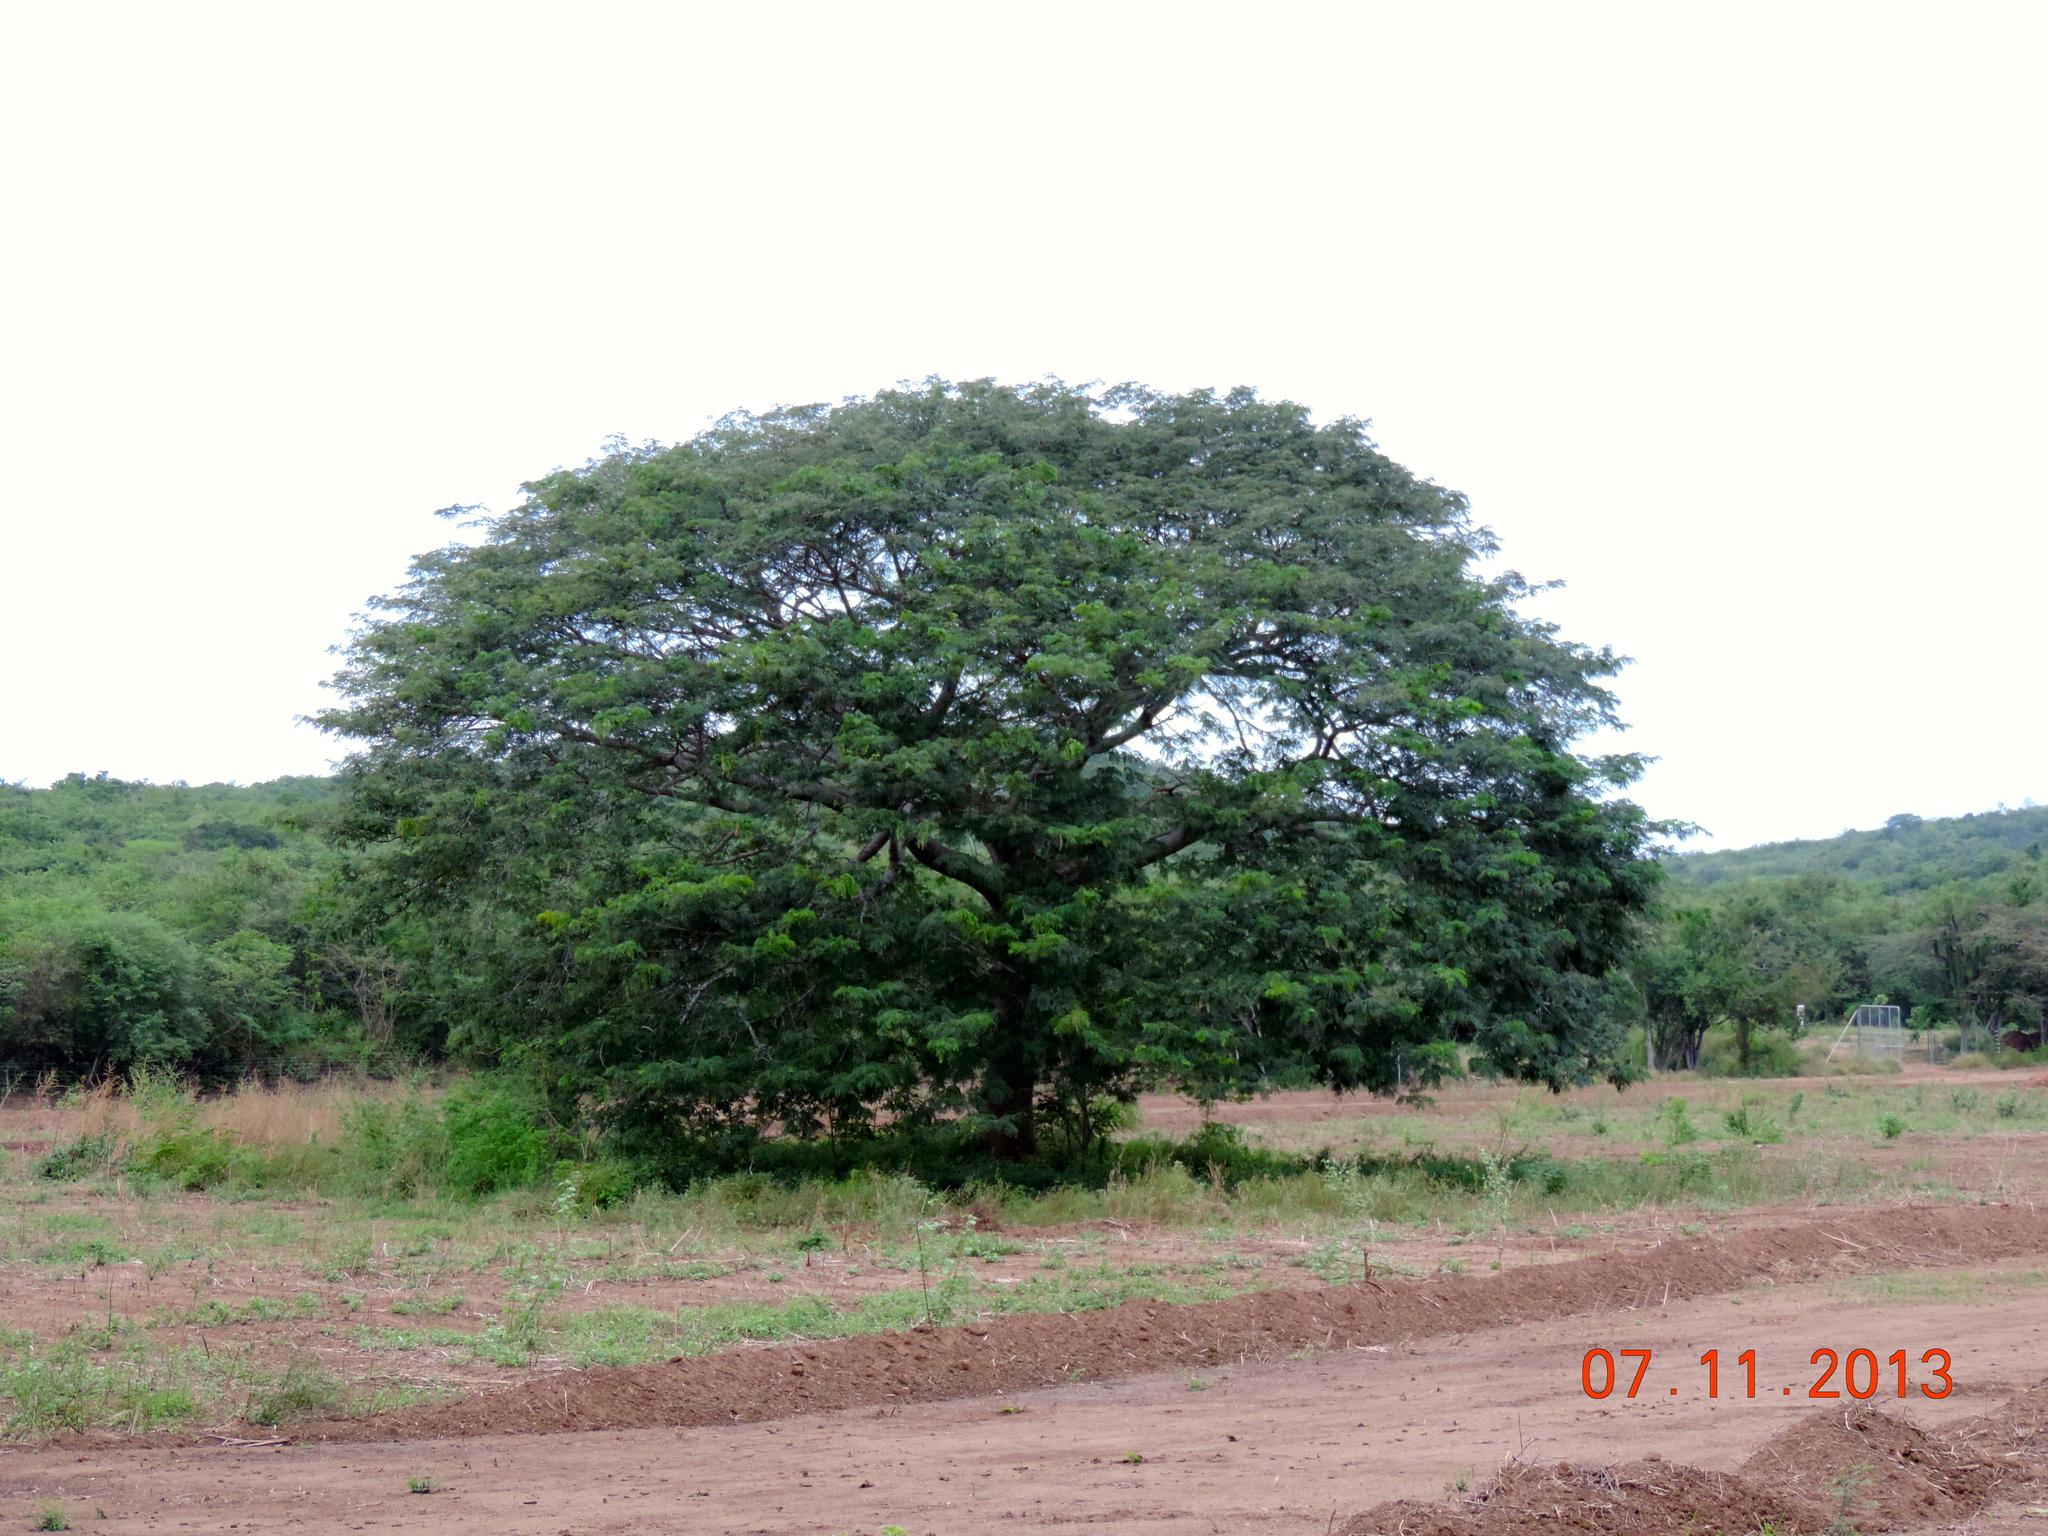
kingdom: Plantae
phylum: Tracheophyta
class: Magnoliopsida
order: Fabales
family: Fabaceae
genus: Enterolobium
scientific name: Enterolobium cyclocarpum
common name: Ear tree
